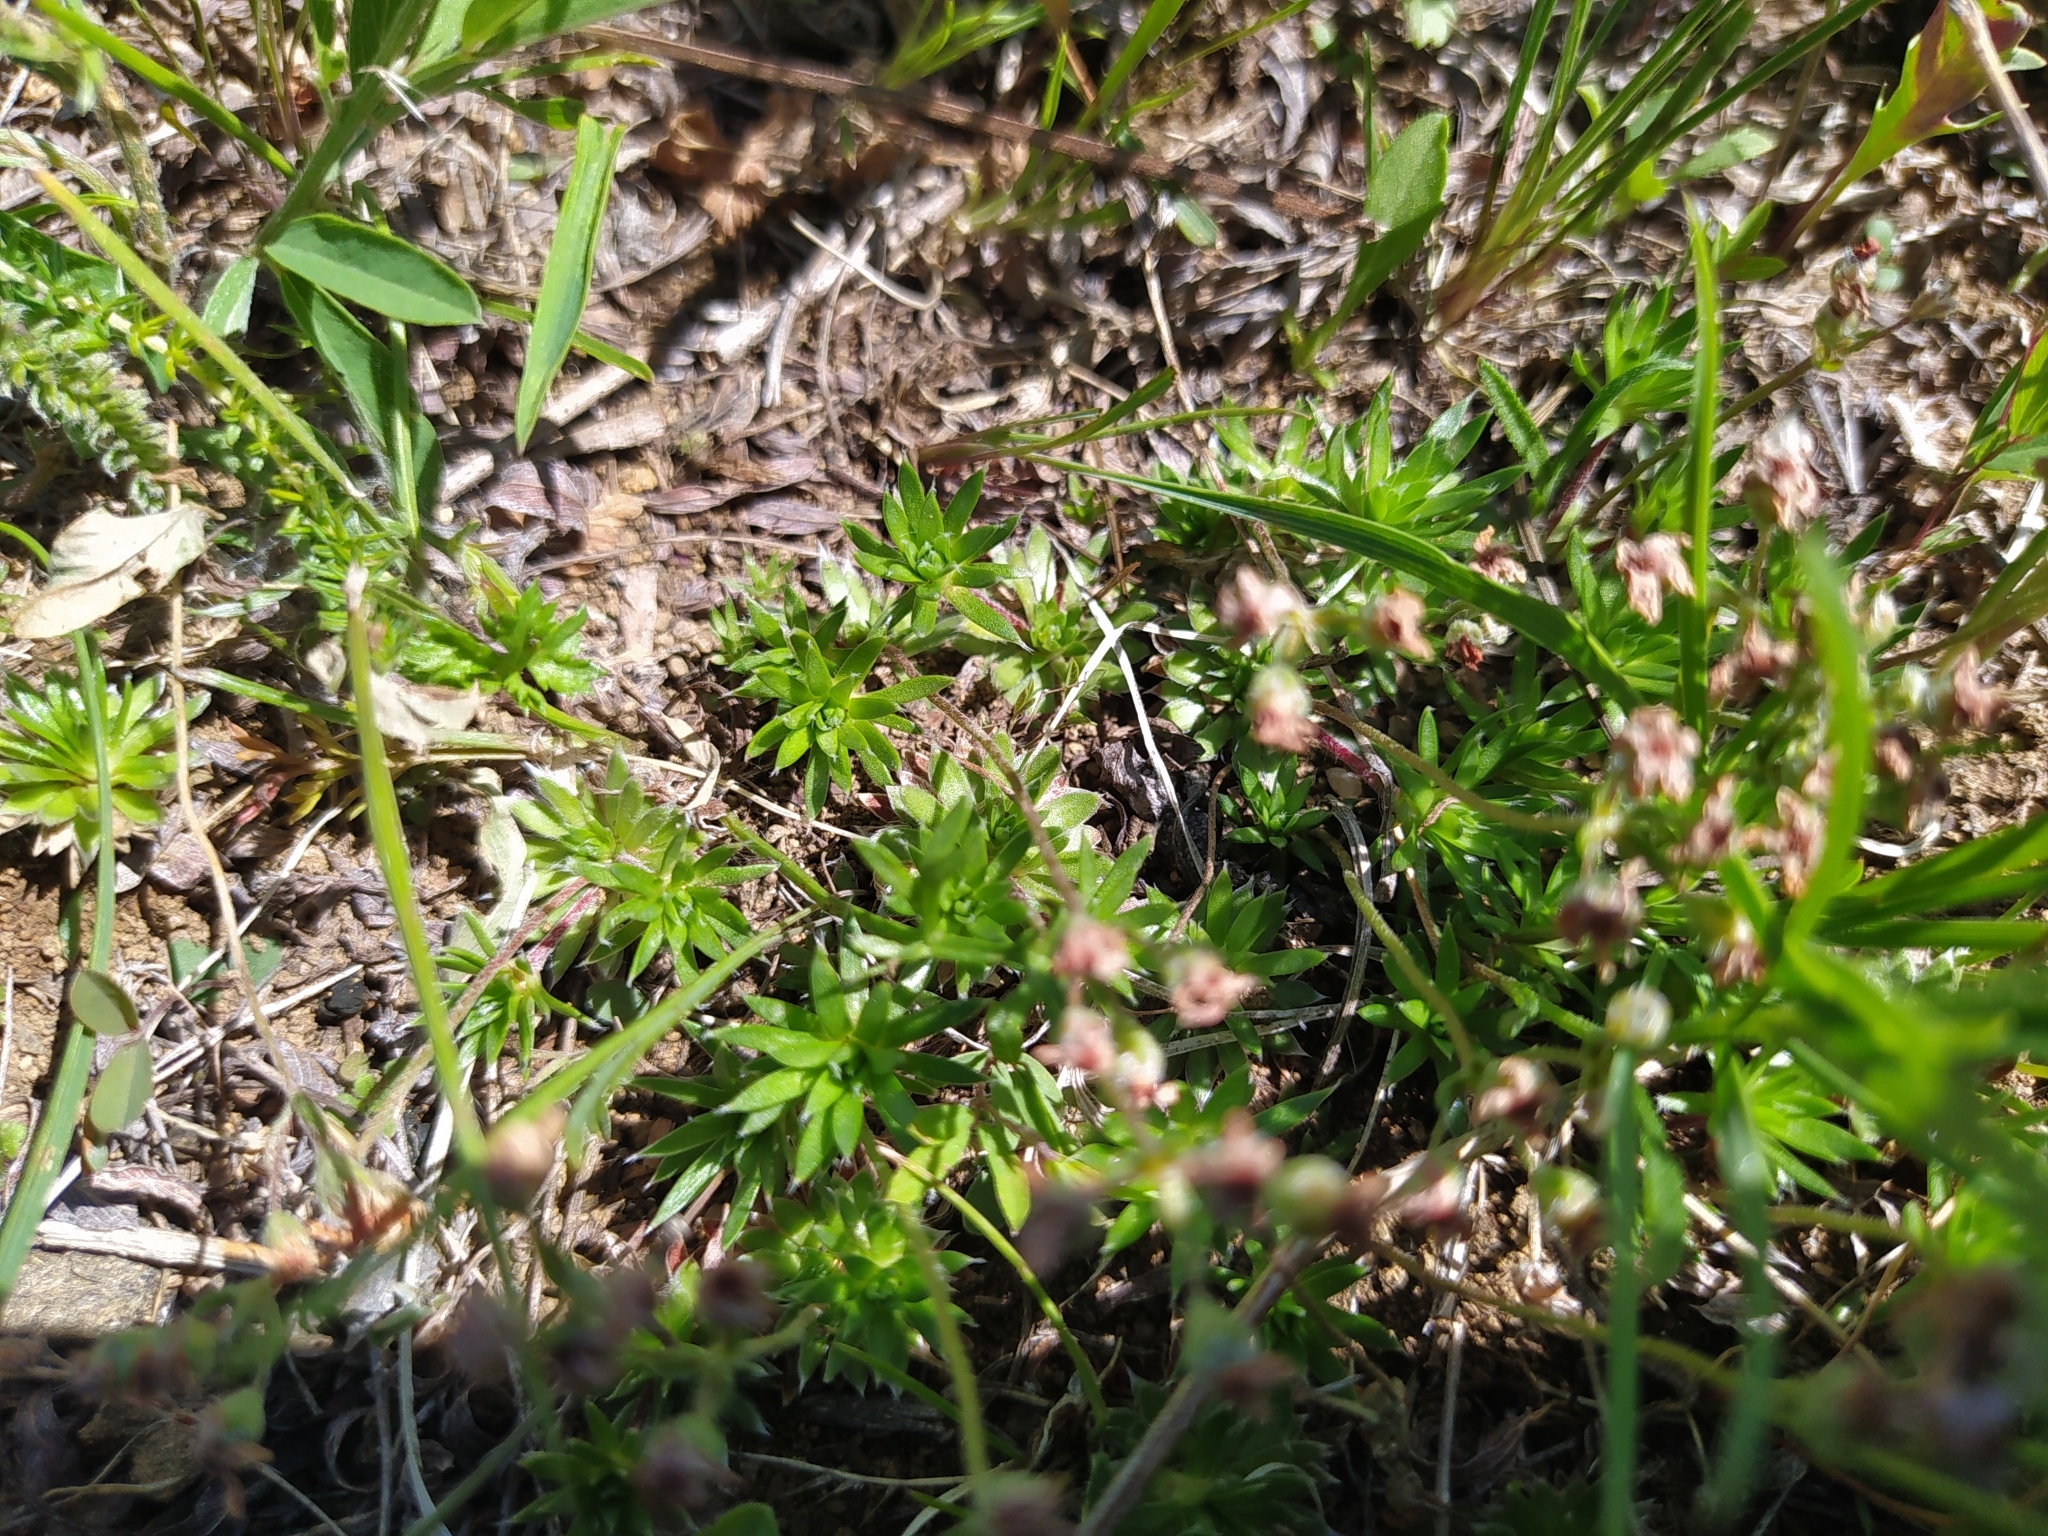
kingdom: Plantae
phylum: Tracheophyta
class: Magnoliopsida
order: Ericales
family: Primulaceae
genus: Androsace
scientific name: Androsace incana
